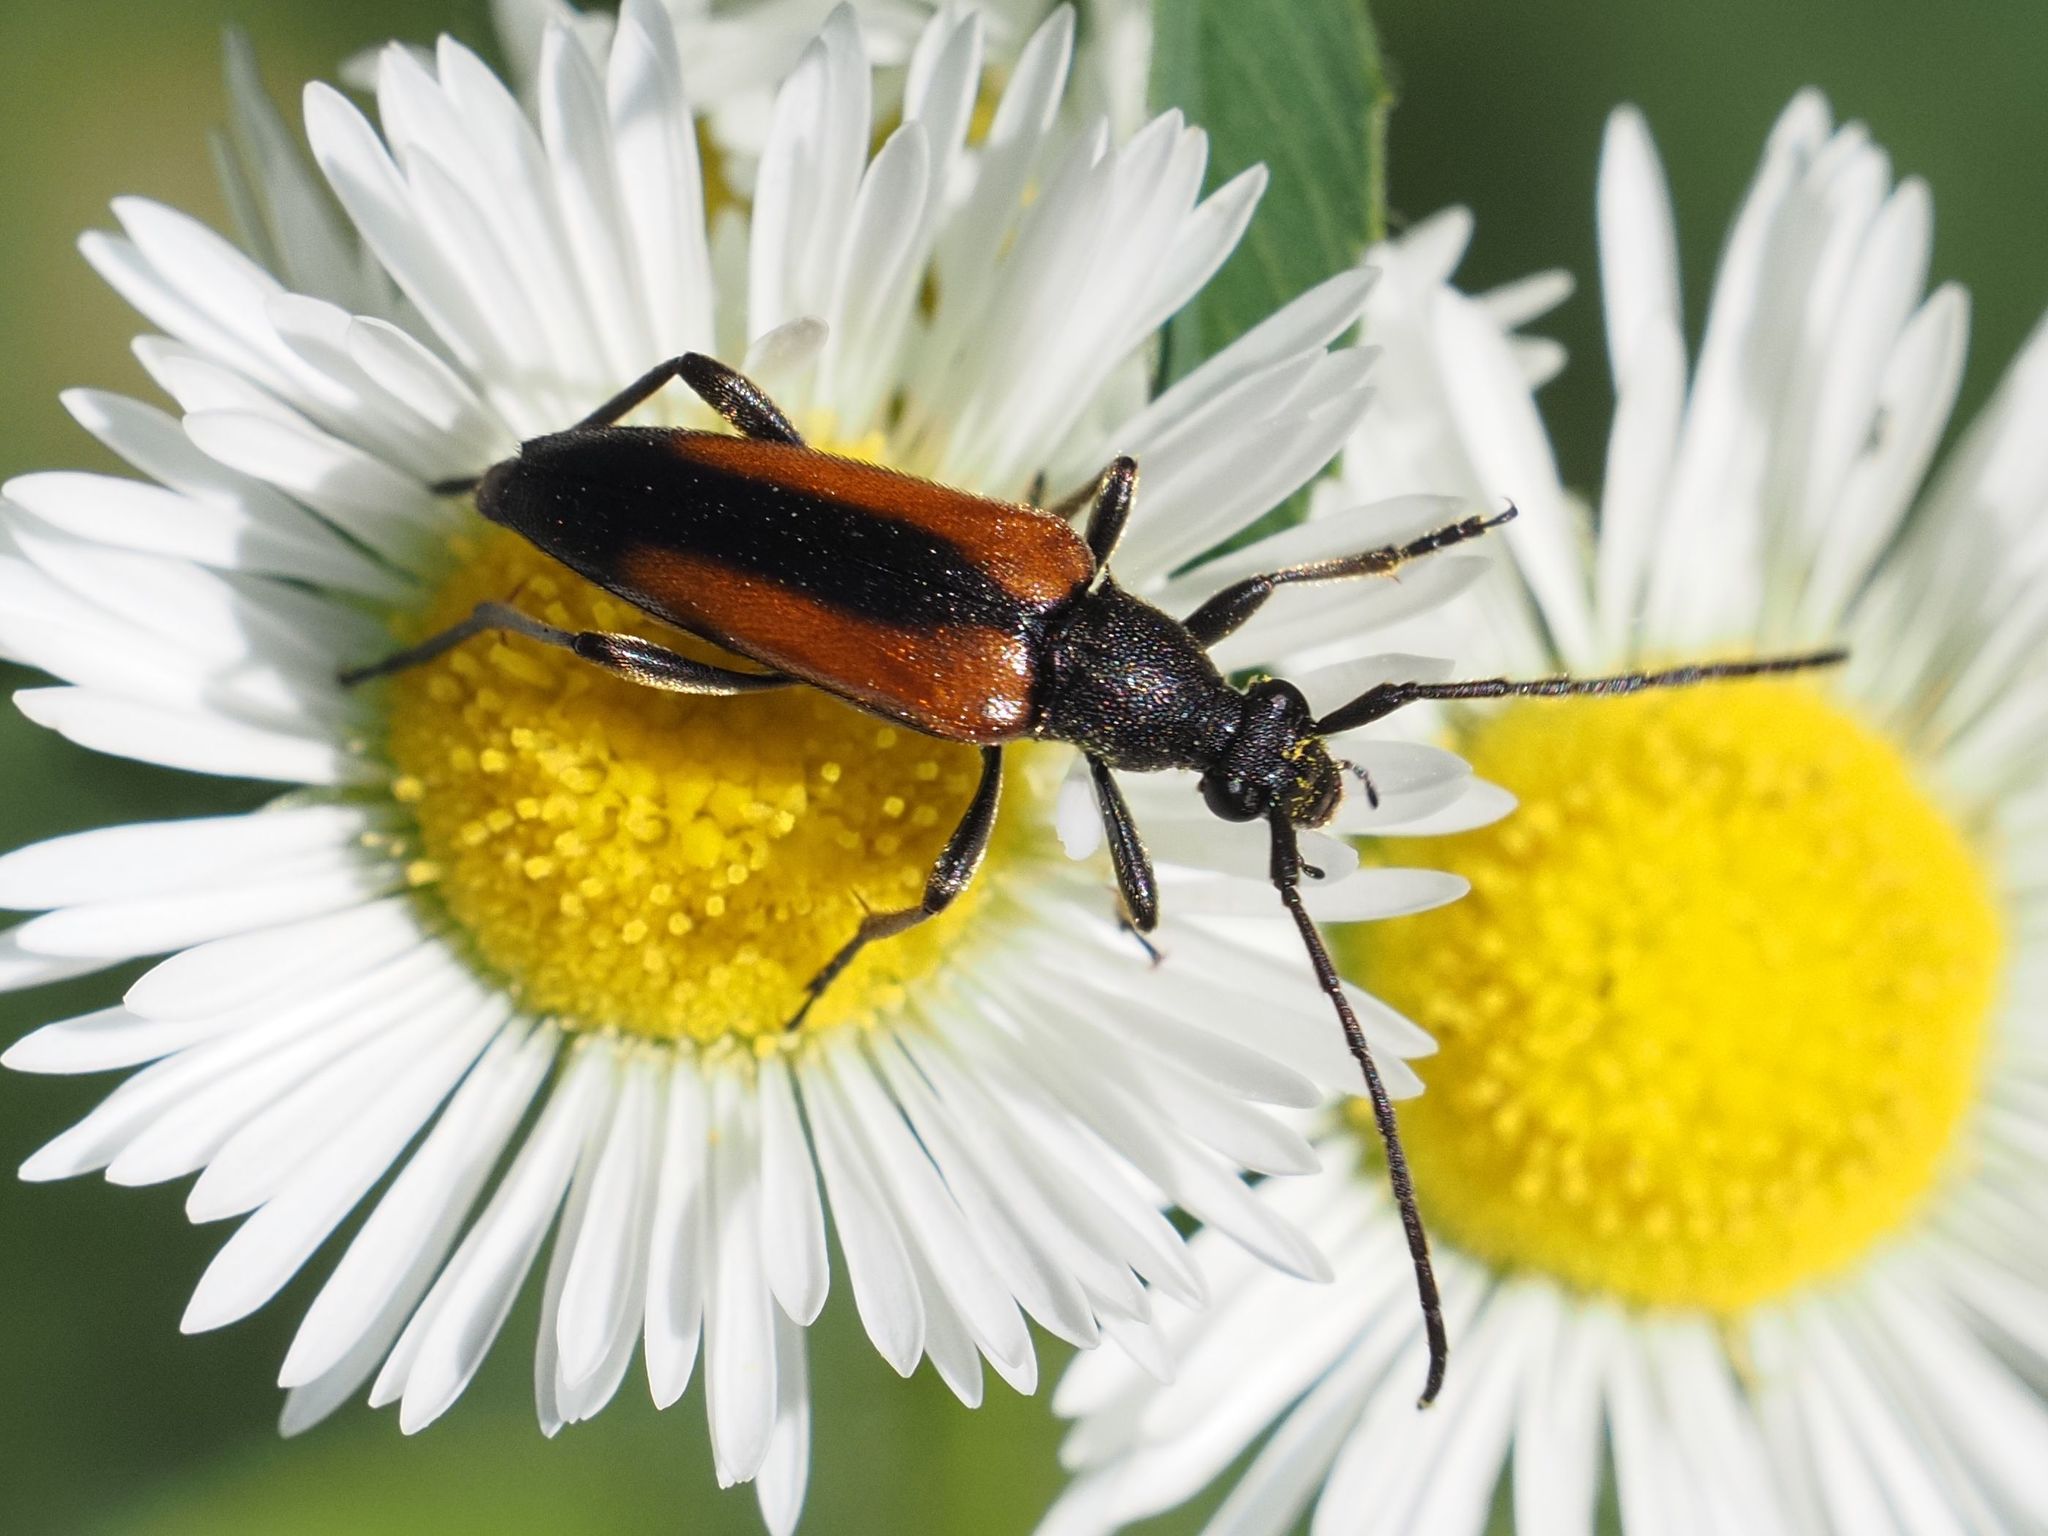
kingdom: Animalia
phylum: Arthropoda
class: Insecta
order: Coleoptera
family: Cerambycidae
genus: Stenurella
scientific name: Stenurella melanura
